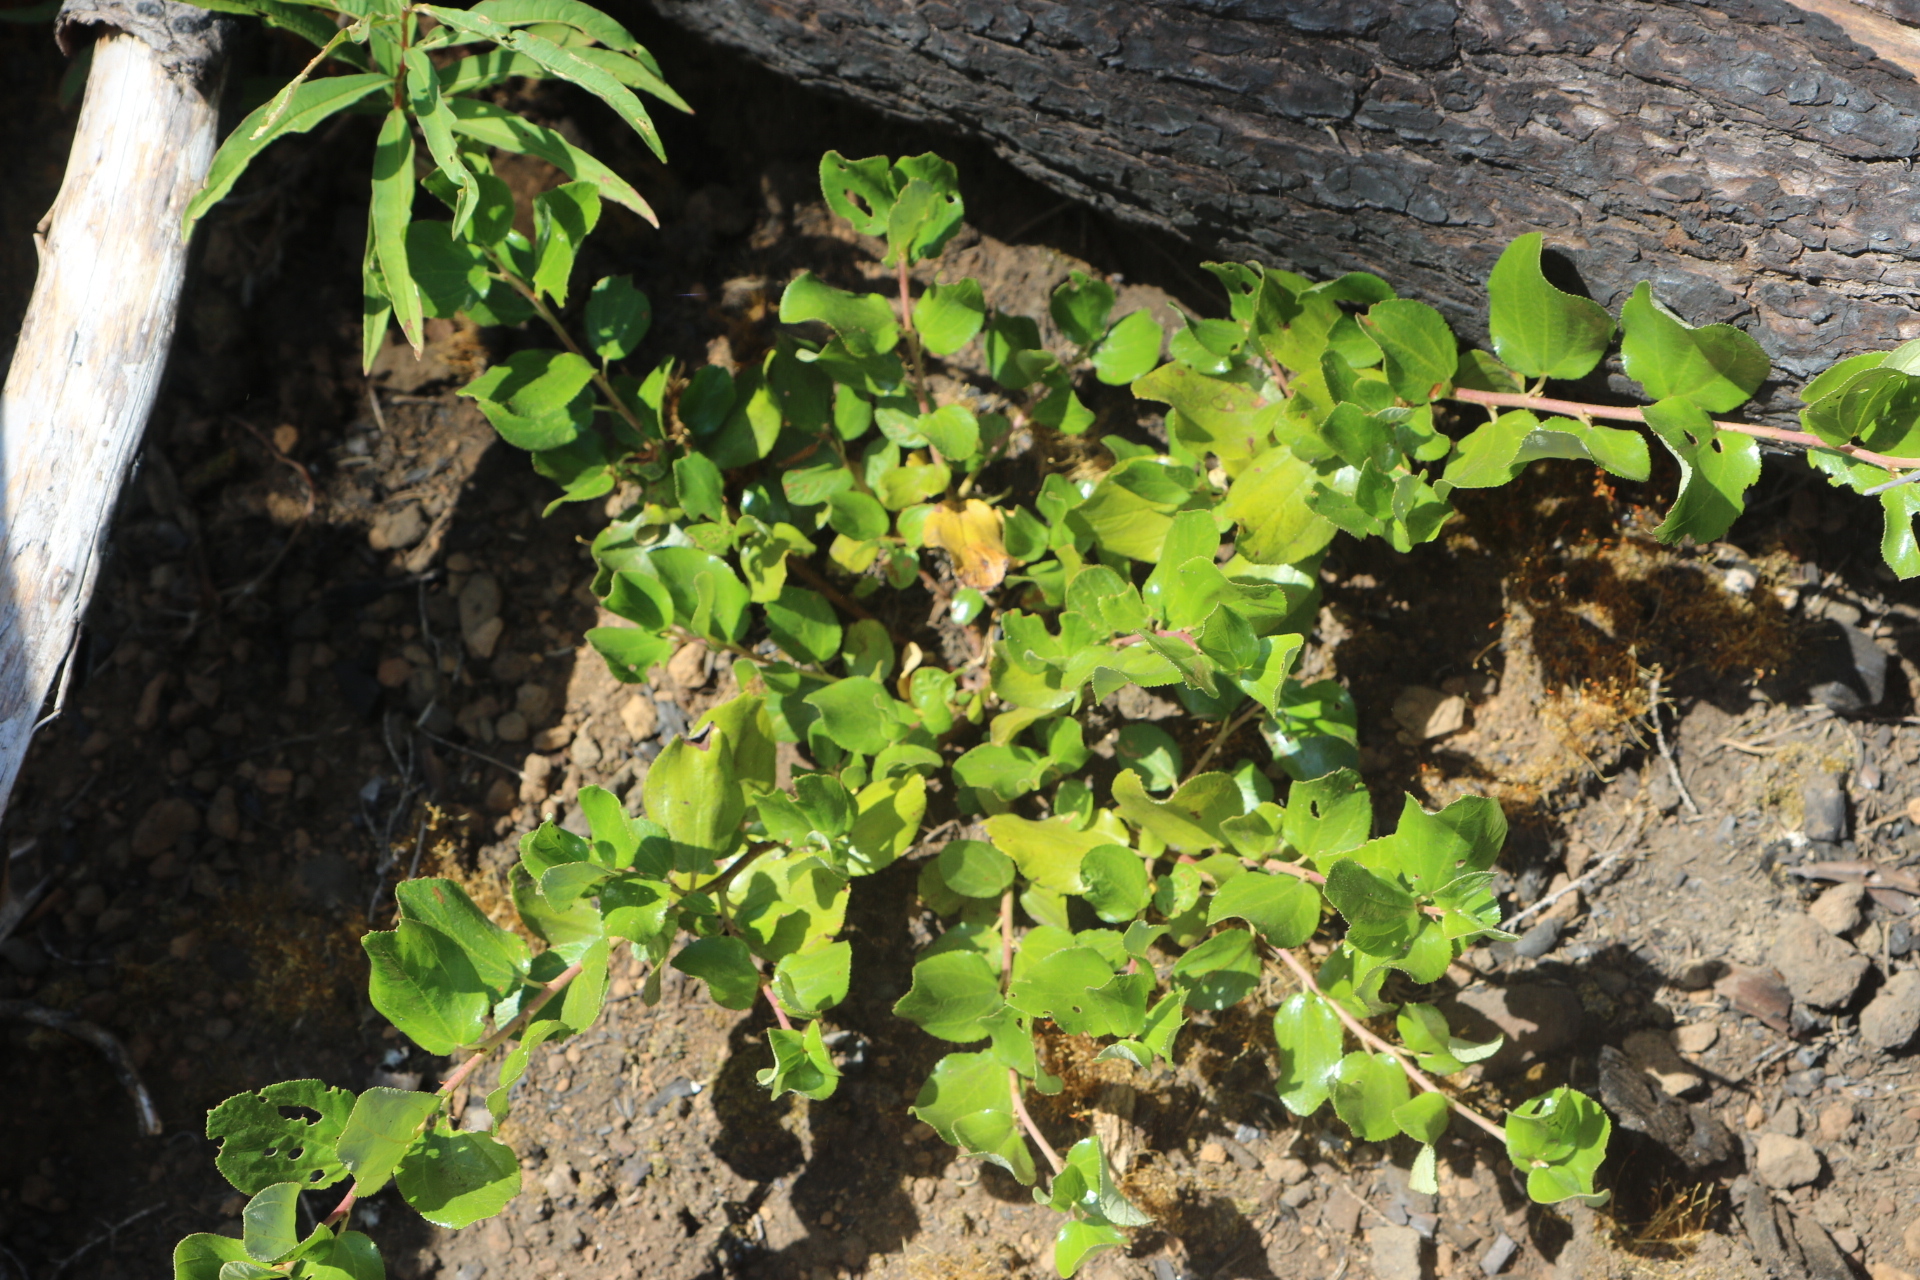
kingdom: Plantae
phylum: Tracheophyta
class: Magnoliopsida
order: Rosales
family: Rhamnaceae
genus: Ceanothus
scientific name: Ceanothus velutinus
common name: Snowbrush
